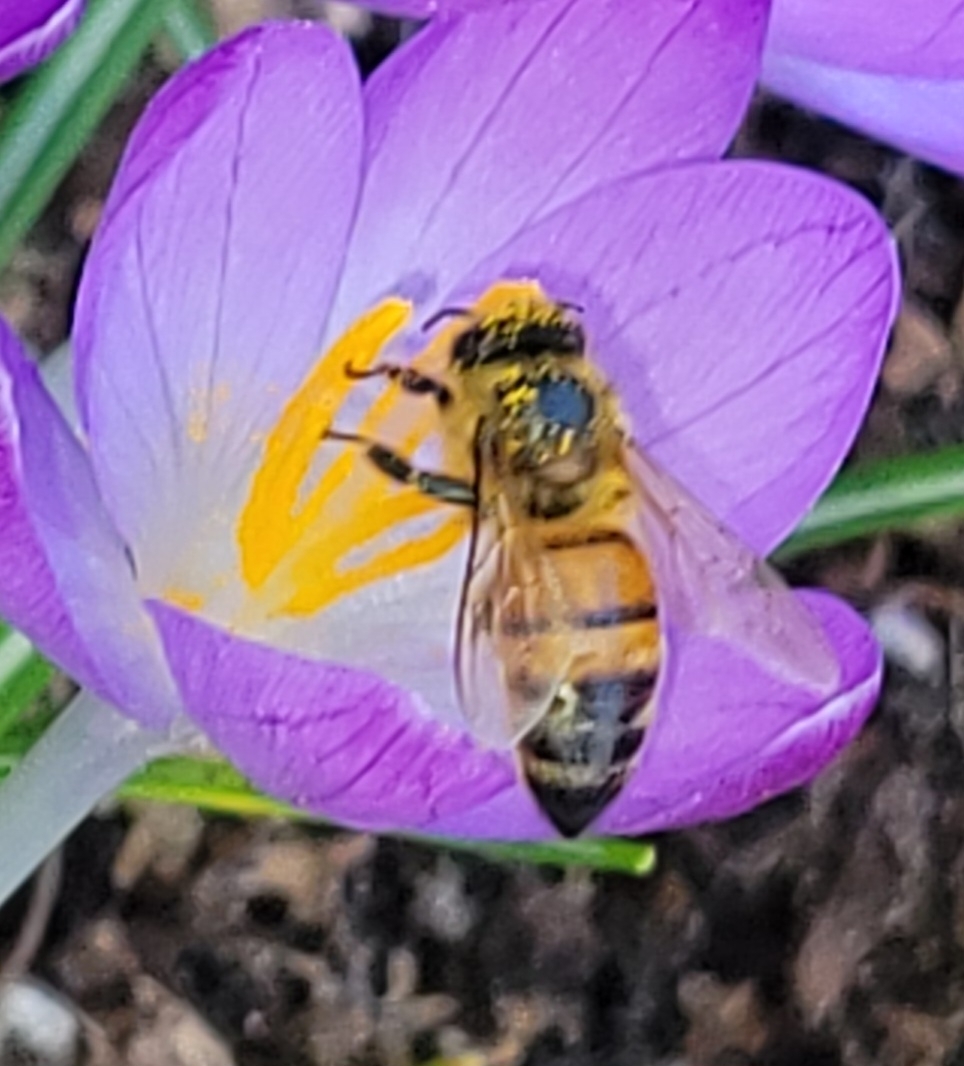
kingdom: Animalia
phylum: Arthropoda
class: Insecta
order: Hymenoptera
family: Apidae
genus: Apis
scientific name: Apis mellifera
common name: Honey bee
